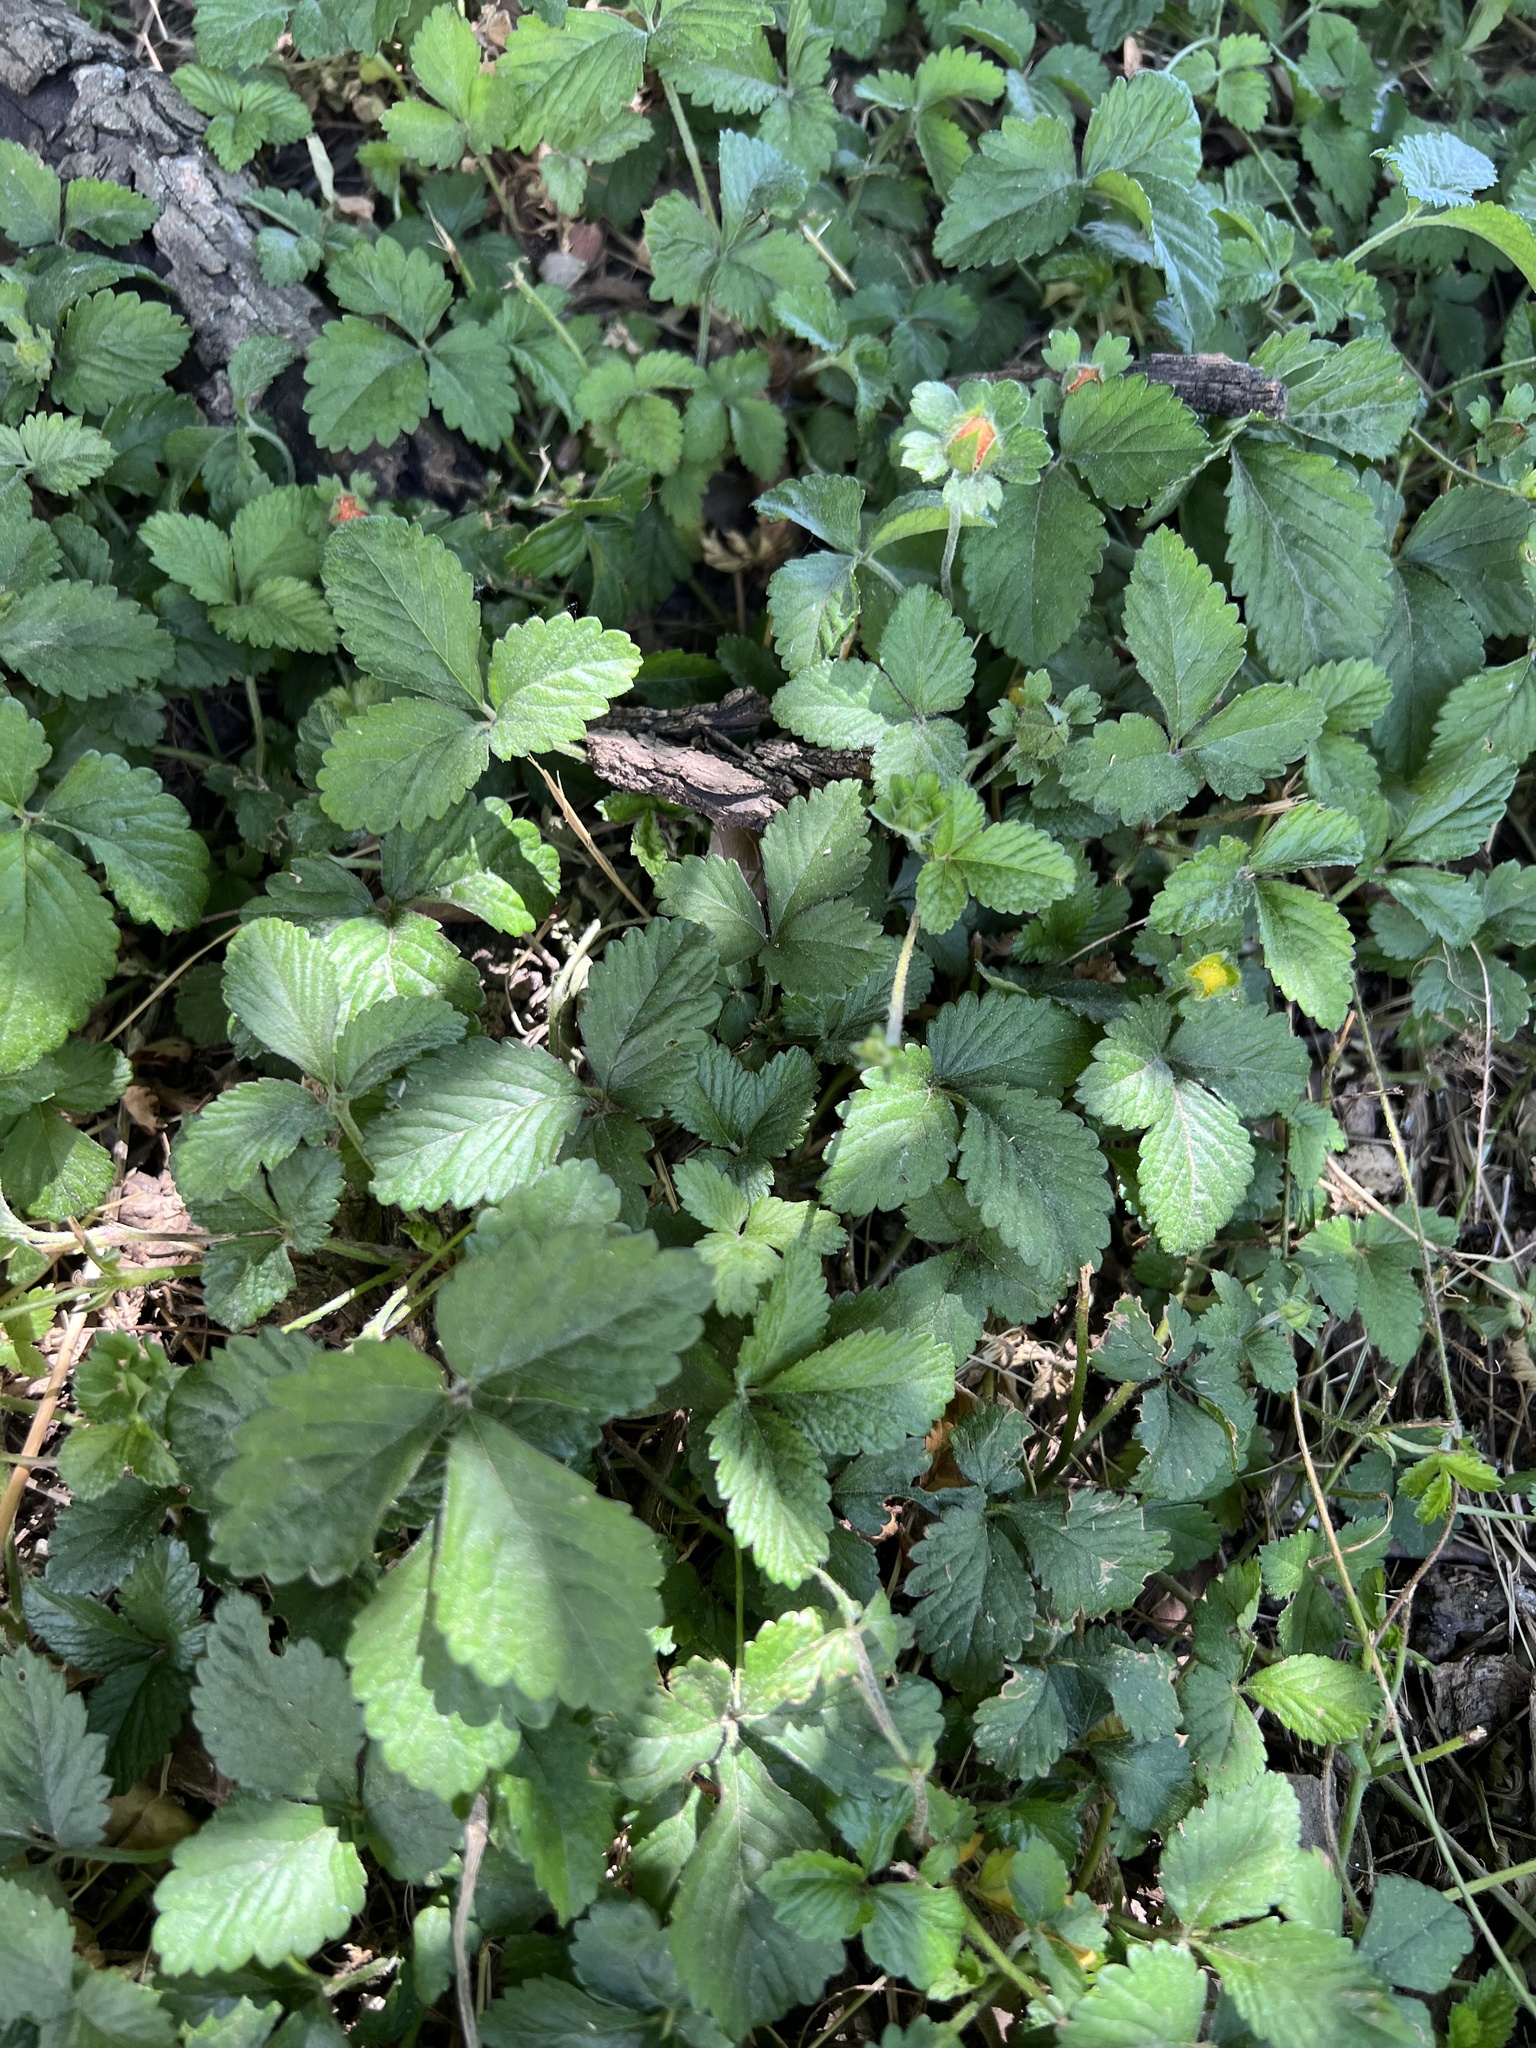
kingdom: Plantae
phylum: Tracheophyta
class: Magnoliopsida
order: Rosales
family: Rosaceae
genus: Potentilla
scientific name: Potentilla indica
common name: Yellow-flowered strawberry
